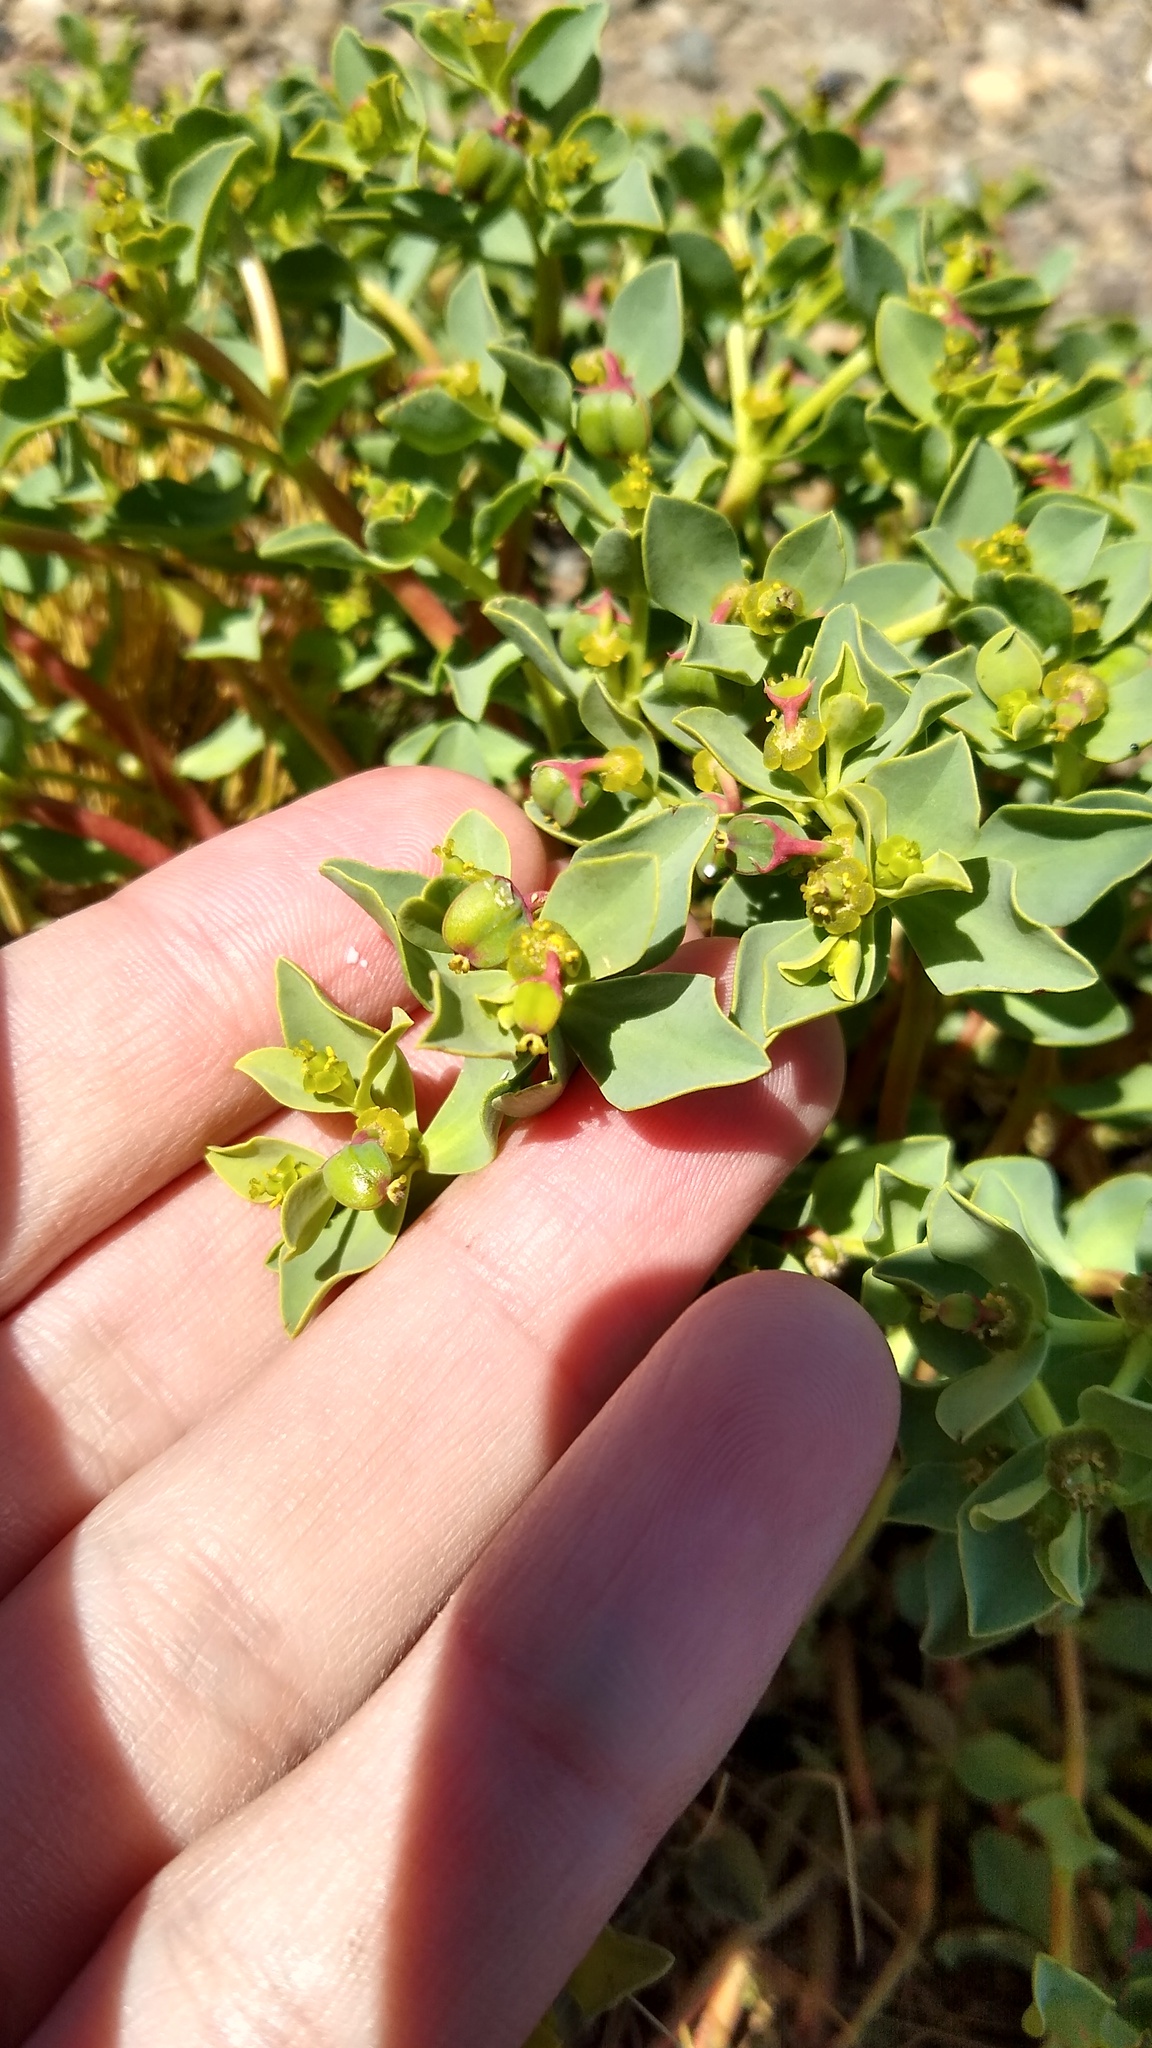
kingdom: Plantae
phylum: Tracheophyta
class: Magnoliopsida
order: Malpighiales
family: Euphorbiaceae
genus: Euphorbia
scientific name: Euphorbia collina
